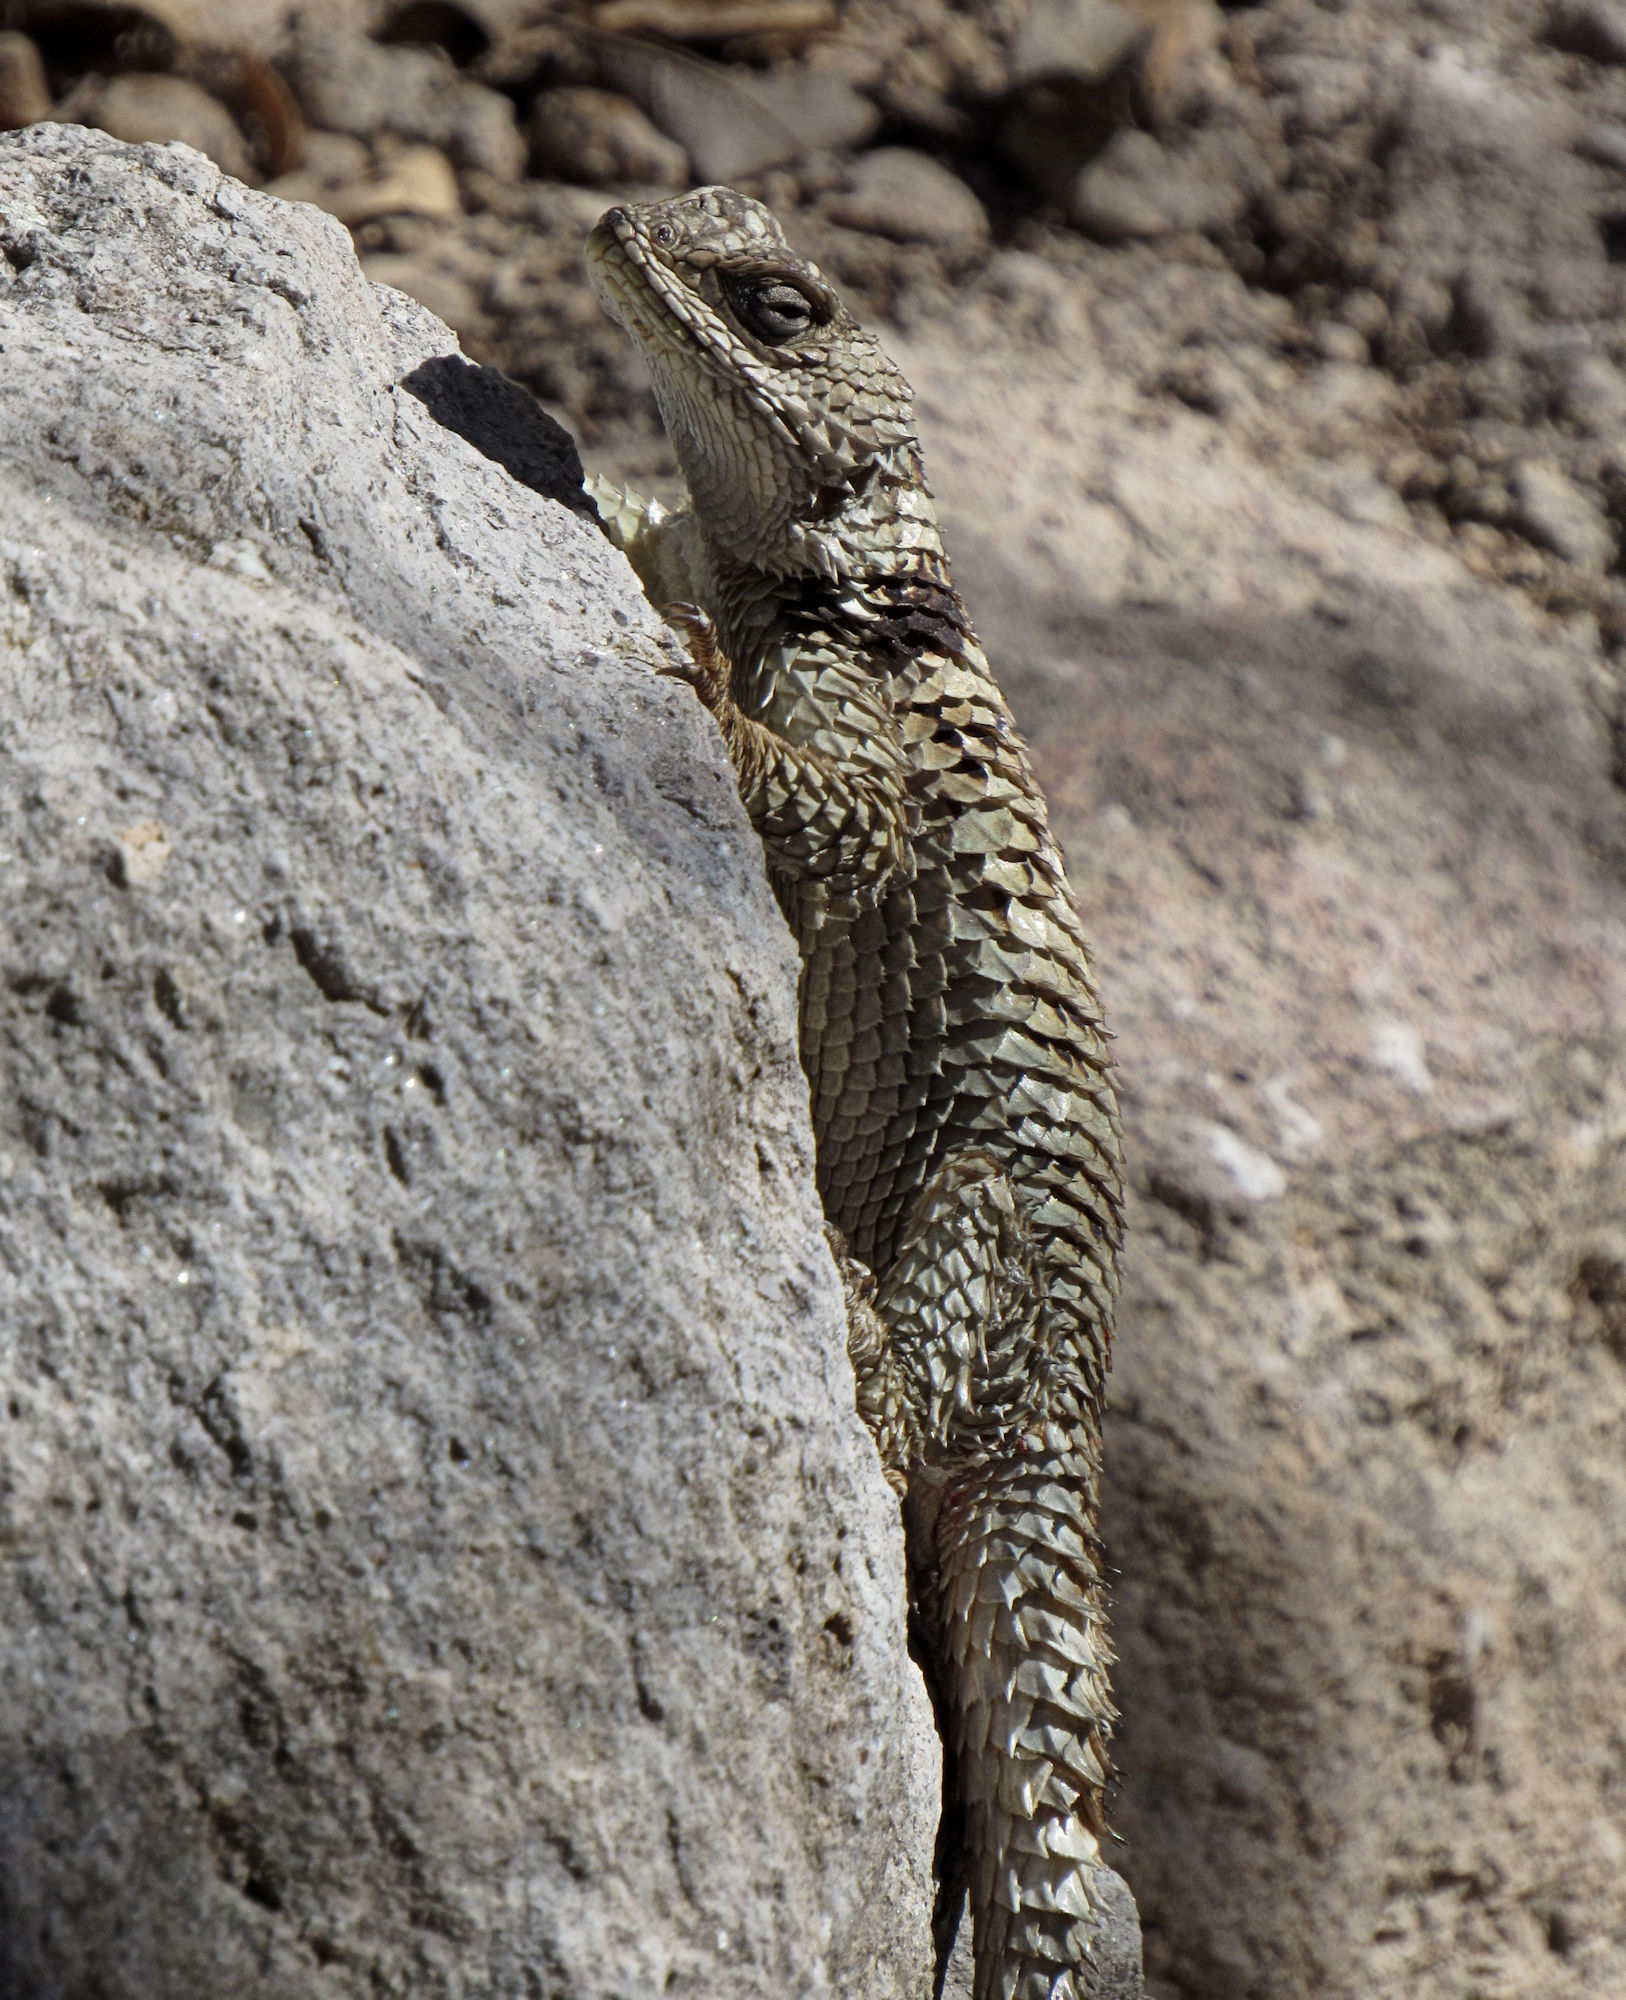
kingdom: Animalia
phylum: Chordata
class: Squamata
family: Phrynosomatidae
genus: Sceloporus
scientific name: Sceloporus poinsettii
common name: Crevice spiny lizard
